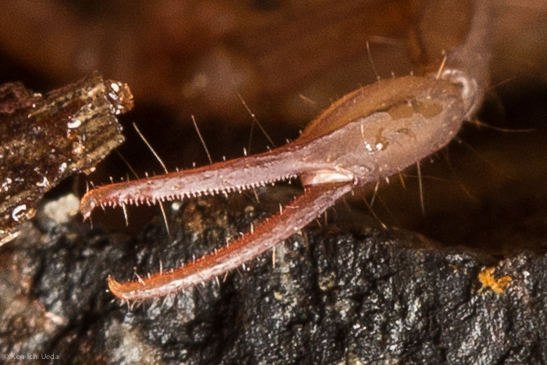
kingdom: Animalia
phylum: Arthropoda
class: Arachnida
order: Scorpiones
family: Vaejovidae
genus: Serradigitus
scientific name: Serradigitus gertschi
